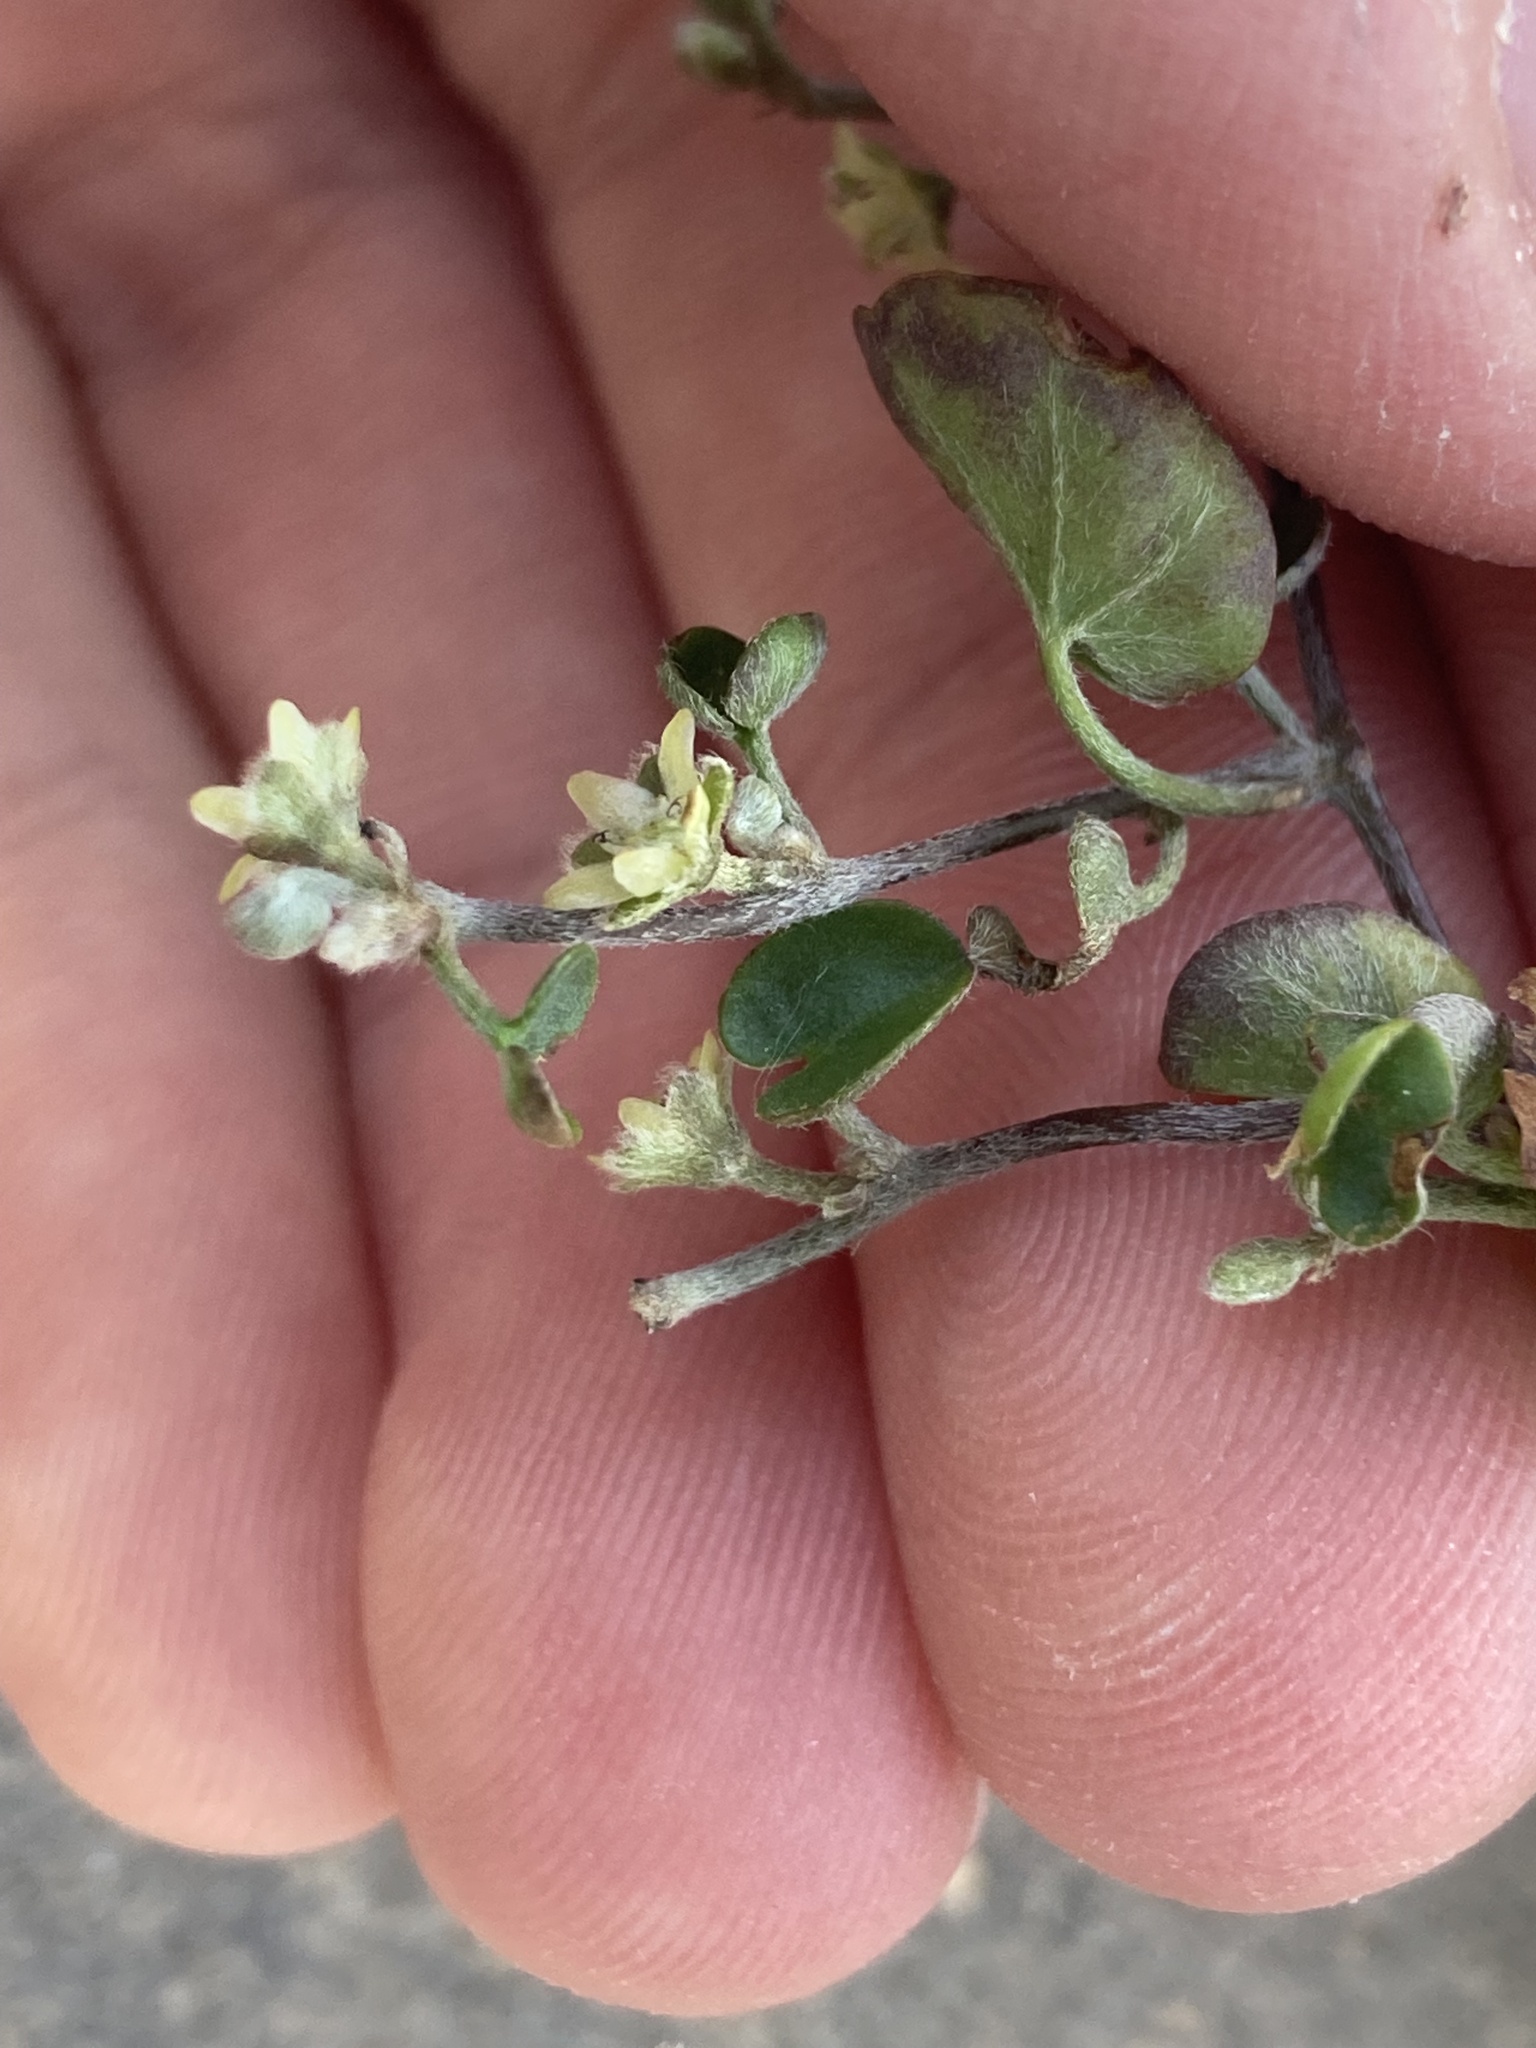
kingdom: Plantae
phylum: Tracheophyta
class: Magnoliopsida
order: Solanales
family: Convolvulaceae
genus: Dichondra
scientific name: Dichondra micrantha
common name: Kidneyweed
